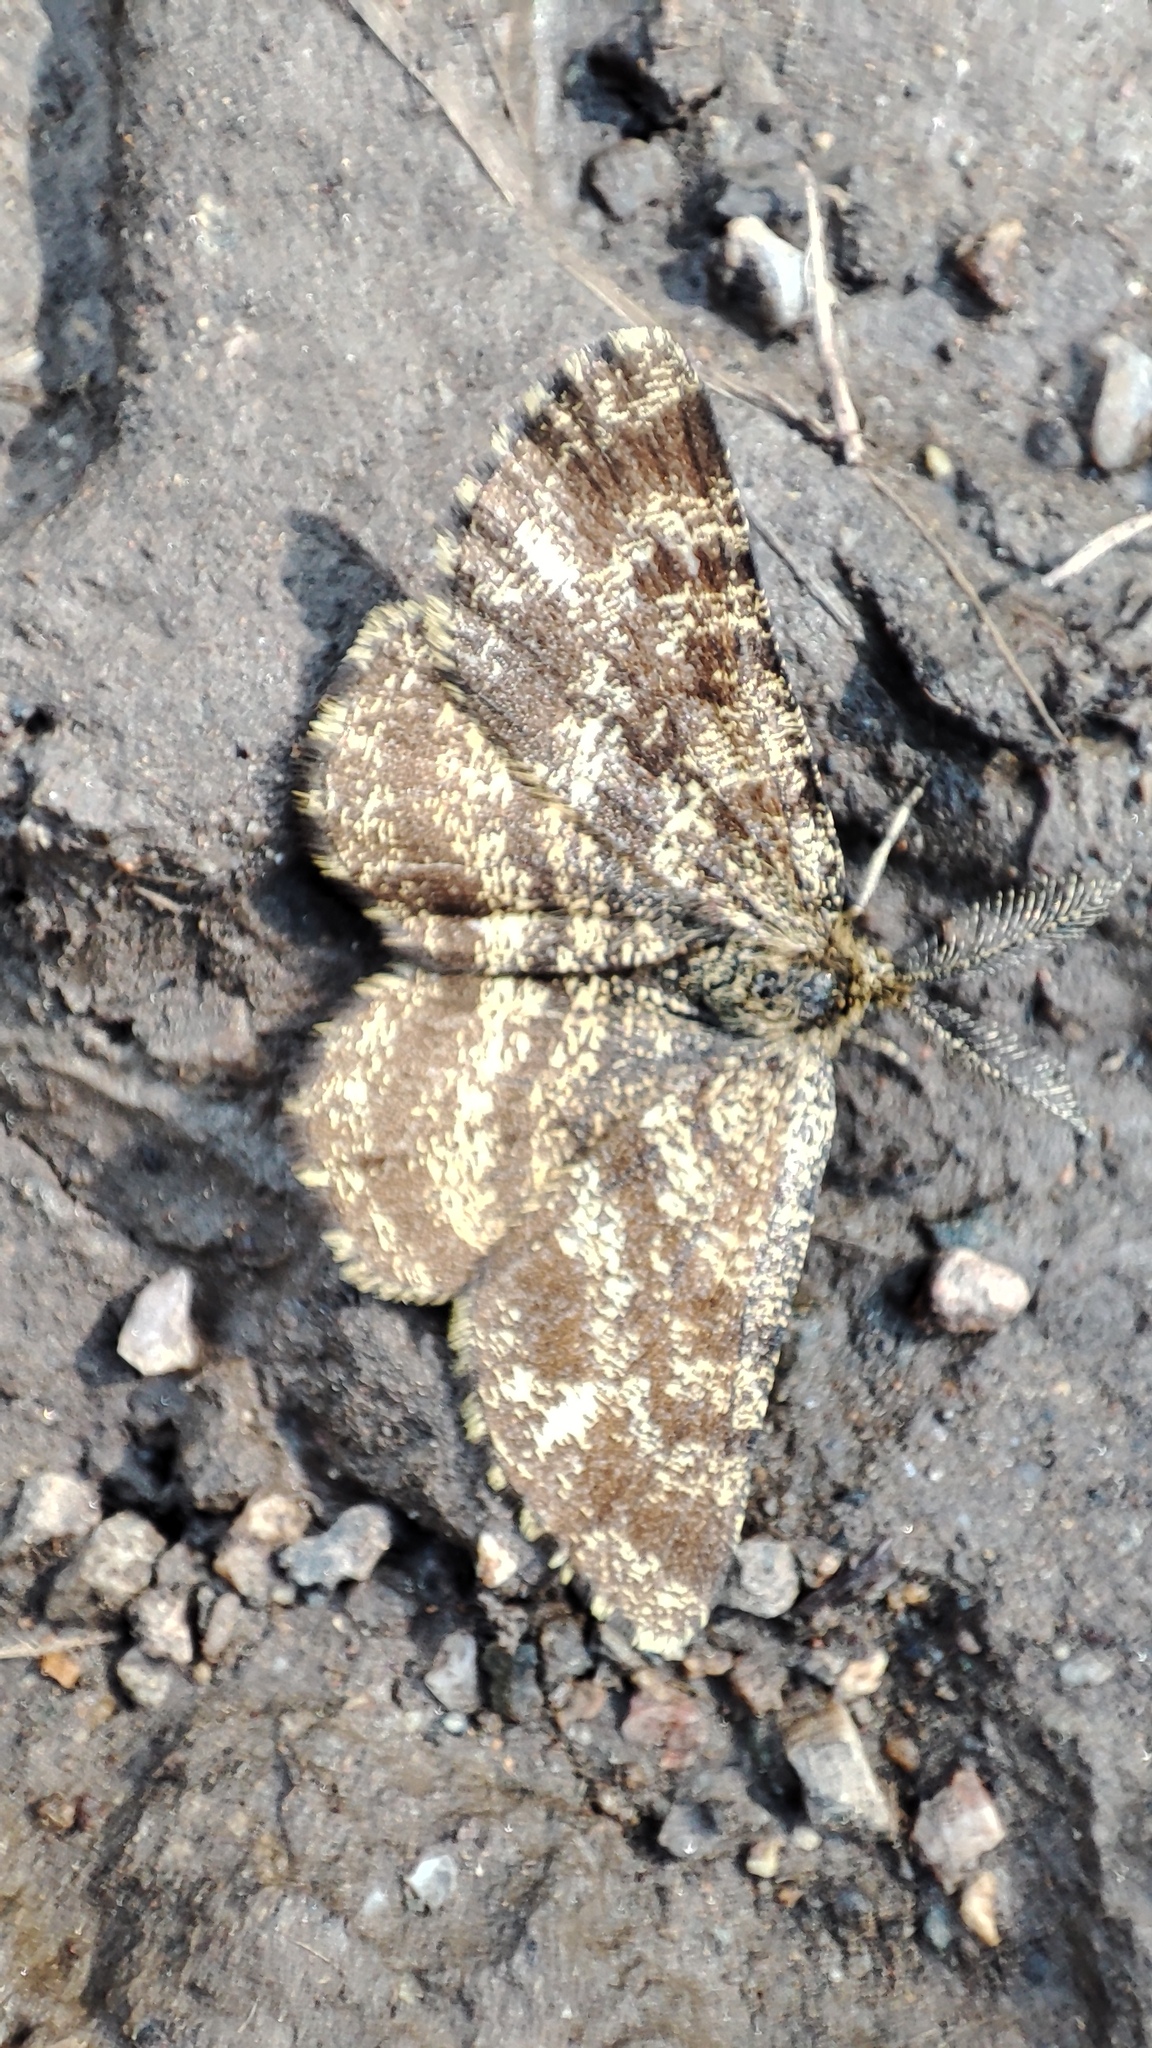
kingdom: Animalia
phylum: Arthropoda
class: Insecta
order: Lepidoptera
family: Geometridae
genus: Ematurga
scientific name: Ematurga atomaria
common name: Common heath
